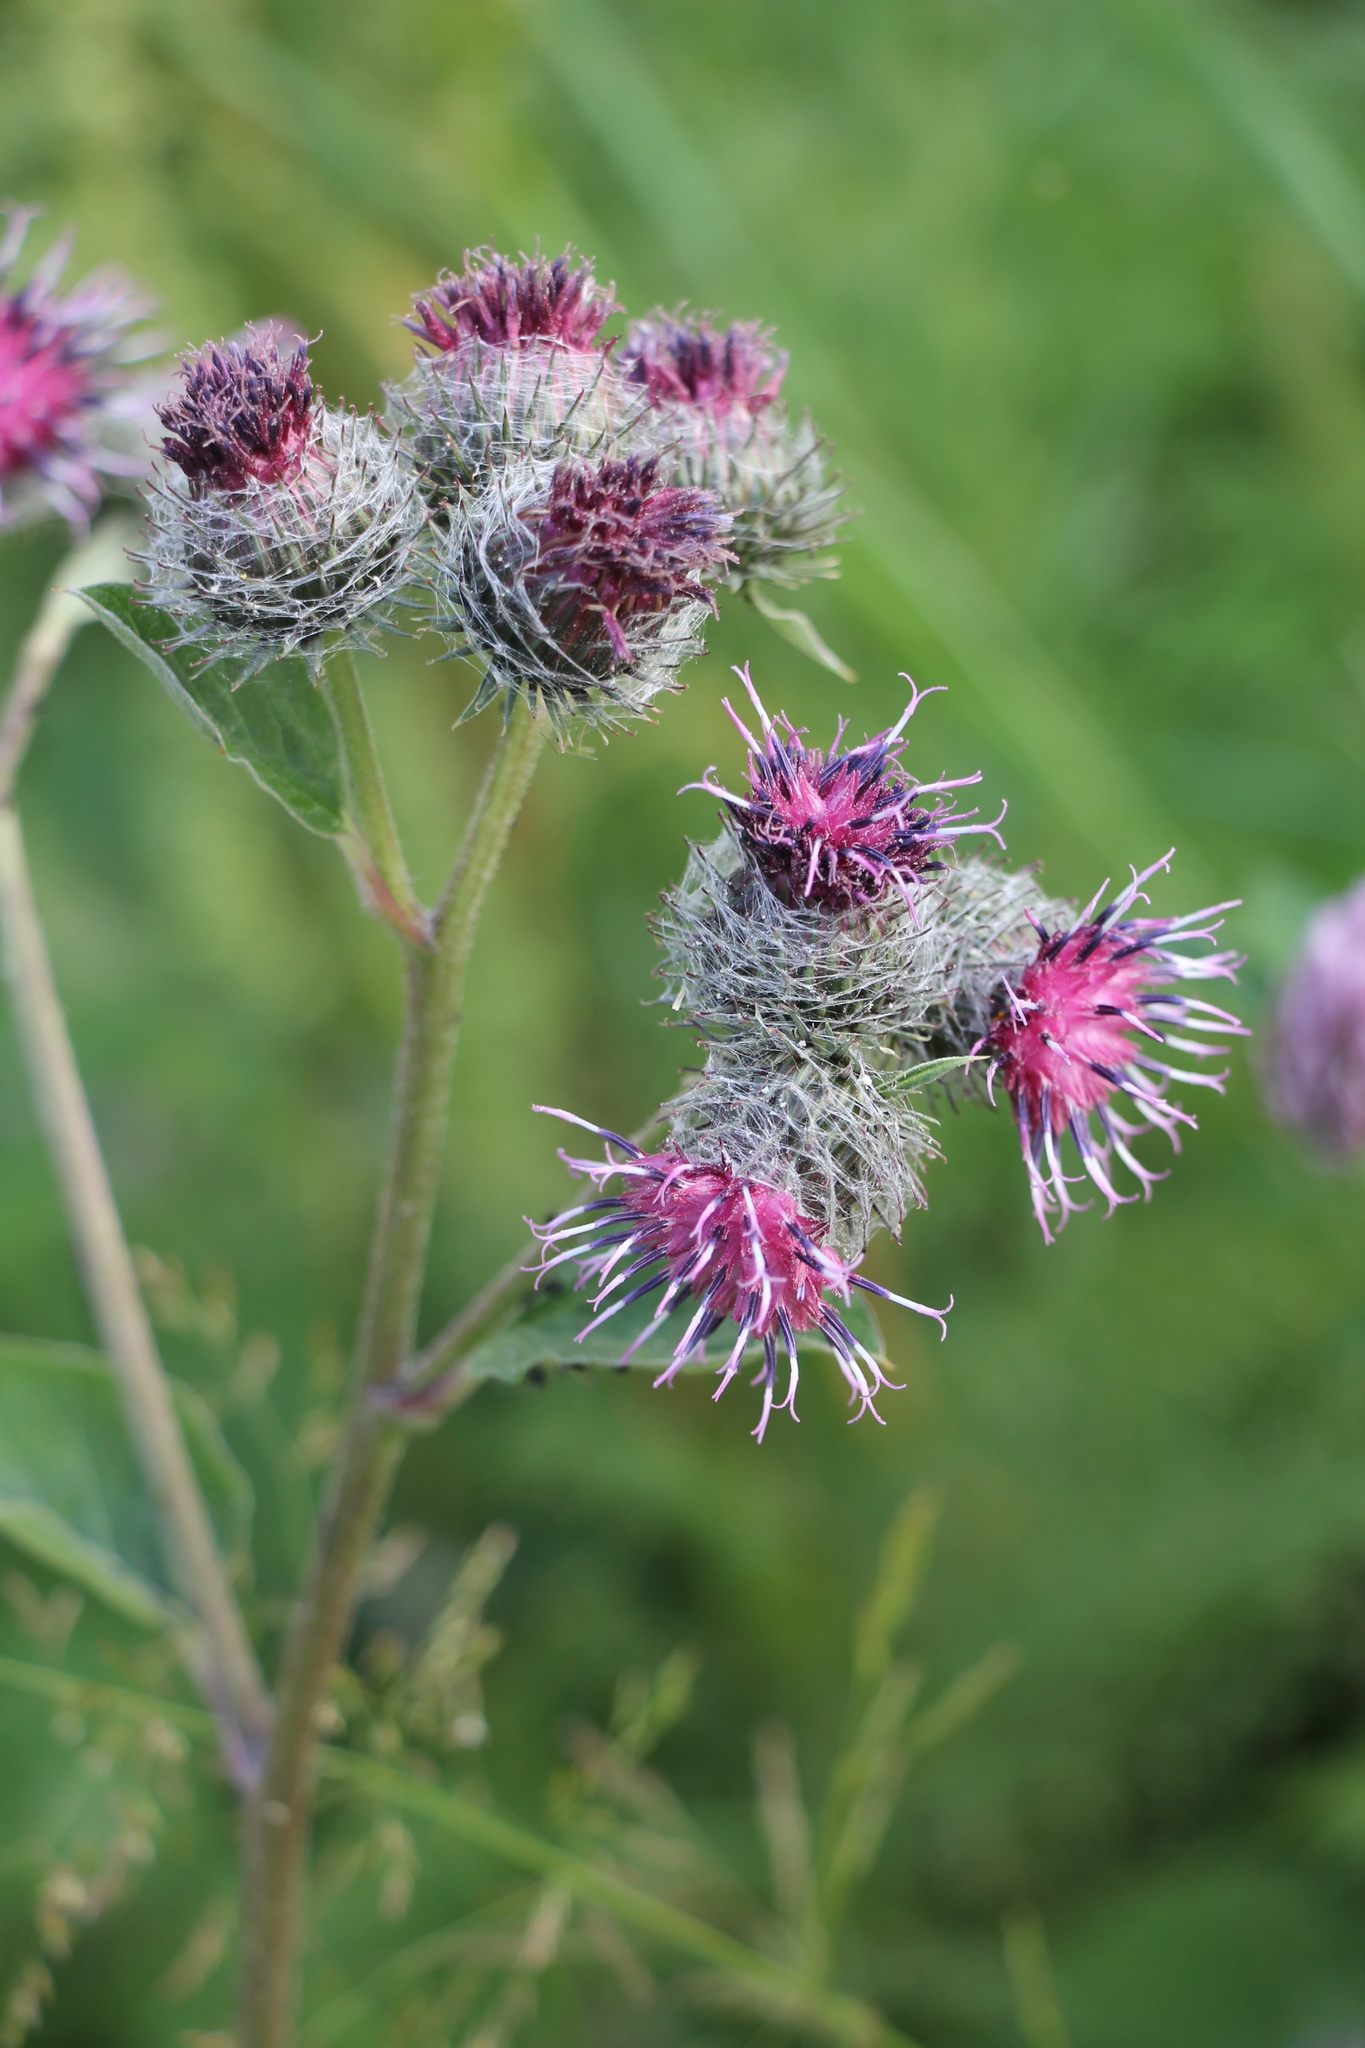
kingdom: Plantae
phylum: Tracheophyta
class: Magnoliopsida
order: Asterales
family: Asteraceae
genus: Arctium
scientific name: Arctium tomentosum
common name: Woolly burdock
